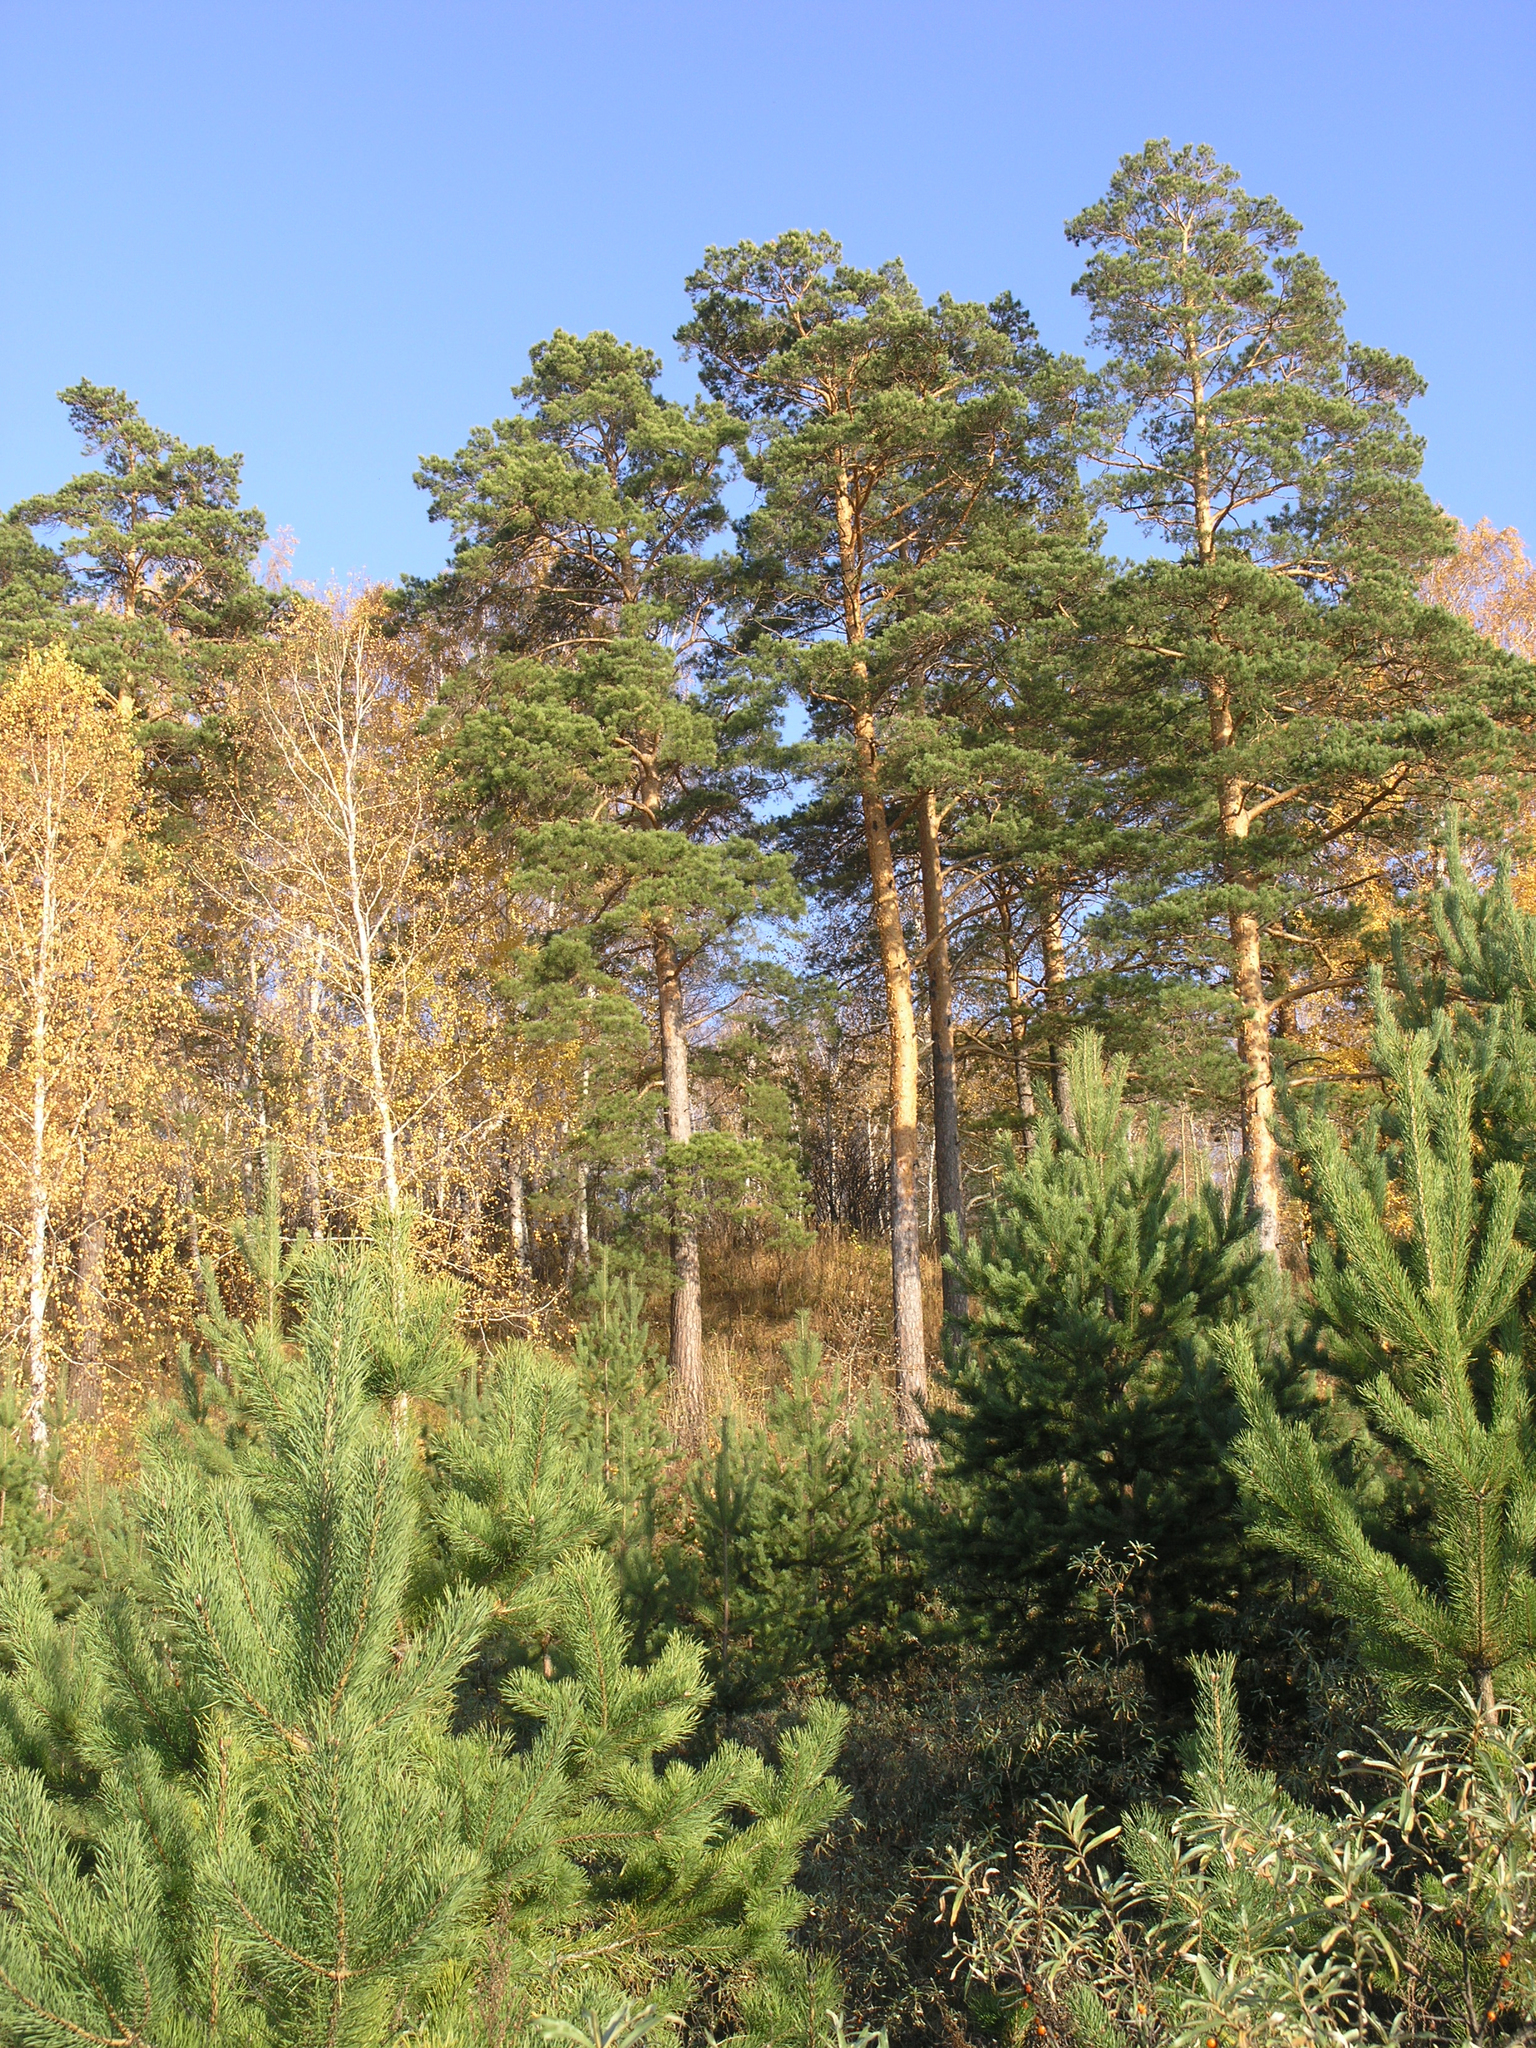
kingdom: Plantae
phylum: Tracheophyta
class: Pinopsida
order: Pinales
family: Pinaceae
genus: Pinus
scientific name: Pinus sylvestris
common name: Scots pine
